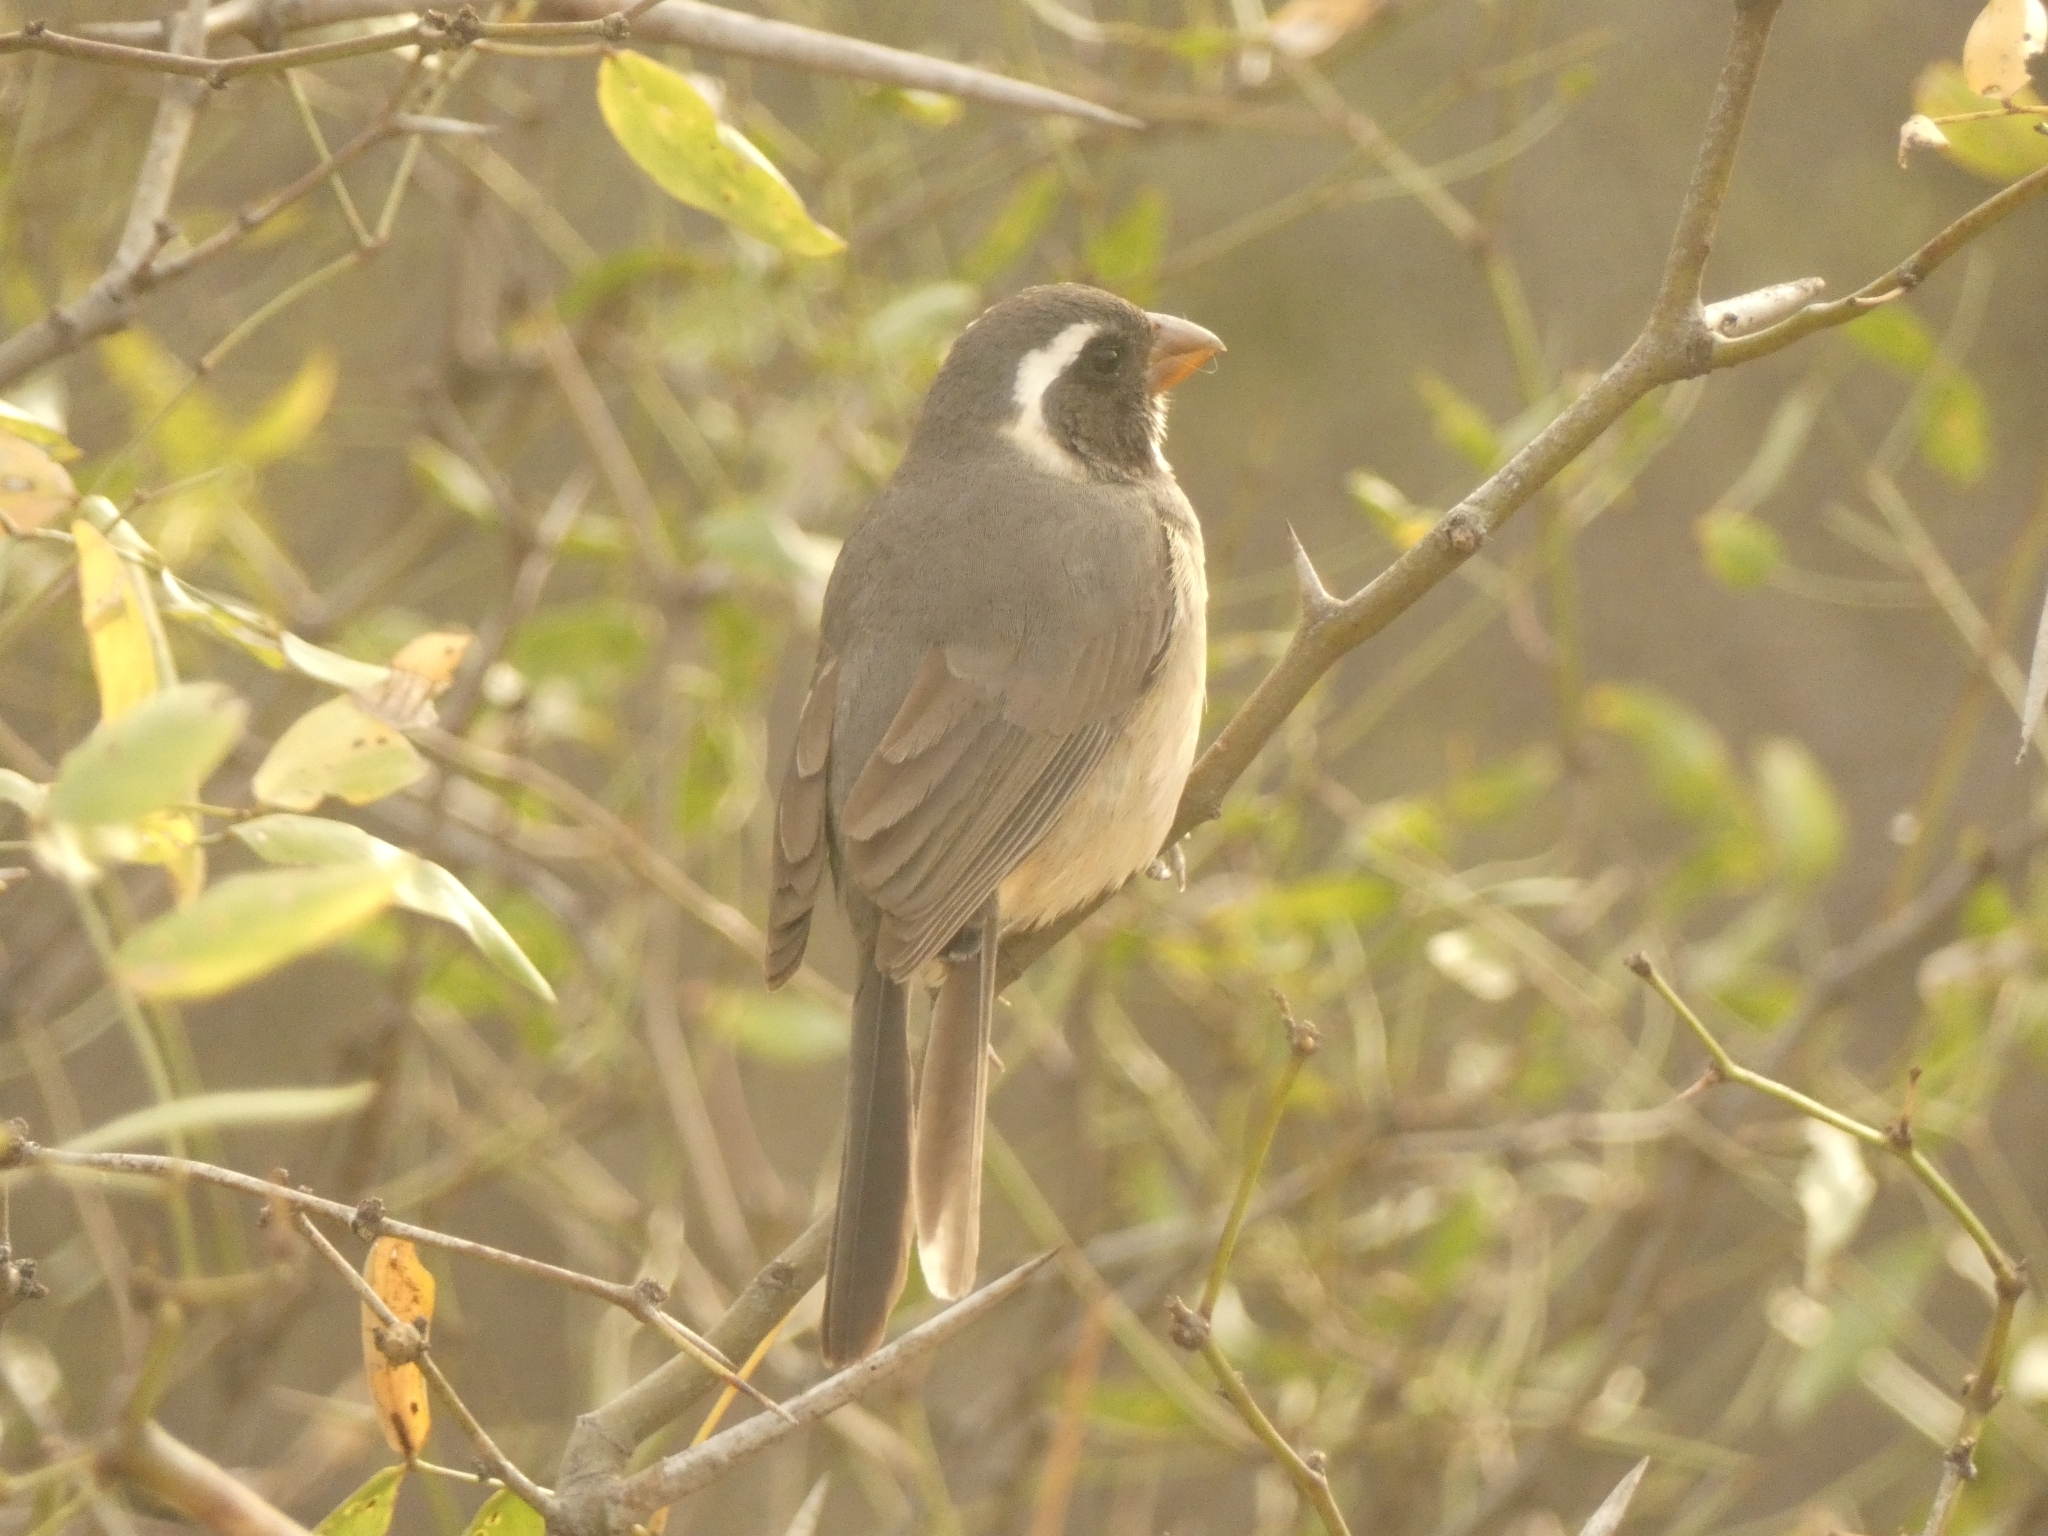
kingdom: Animalia
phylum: Chordata
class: Aves
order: Passeriformes
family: Thraupidae
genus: Saltator
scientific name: Saltator aurantiirostris
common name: Golden-billed saltator
